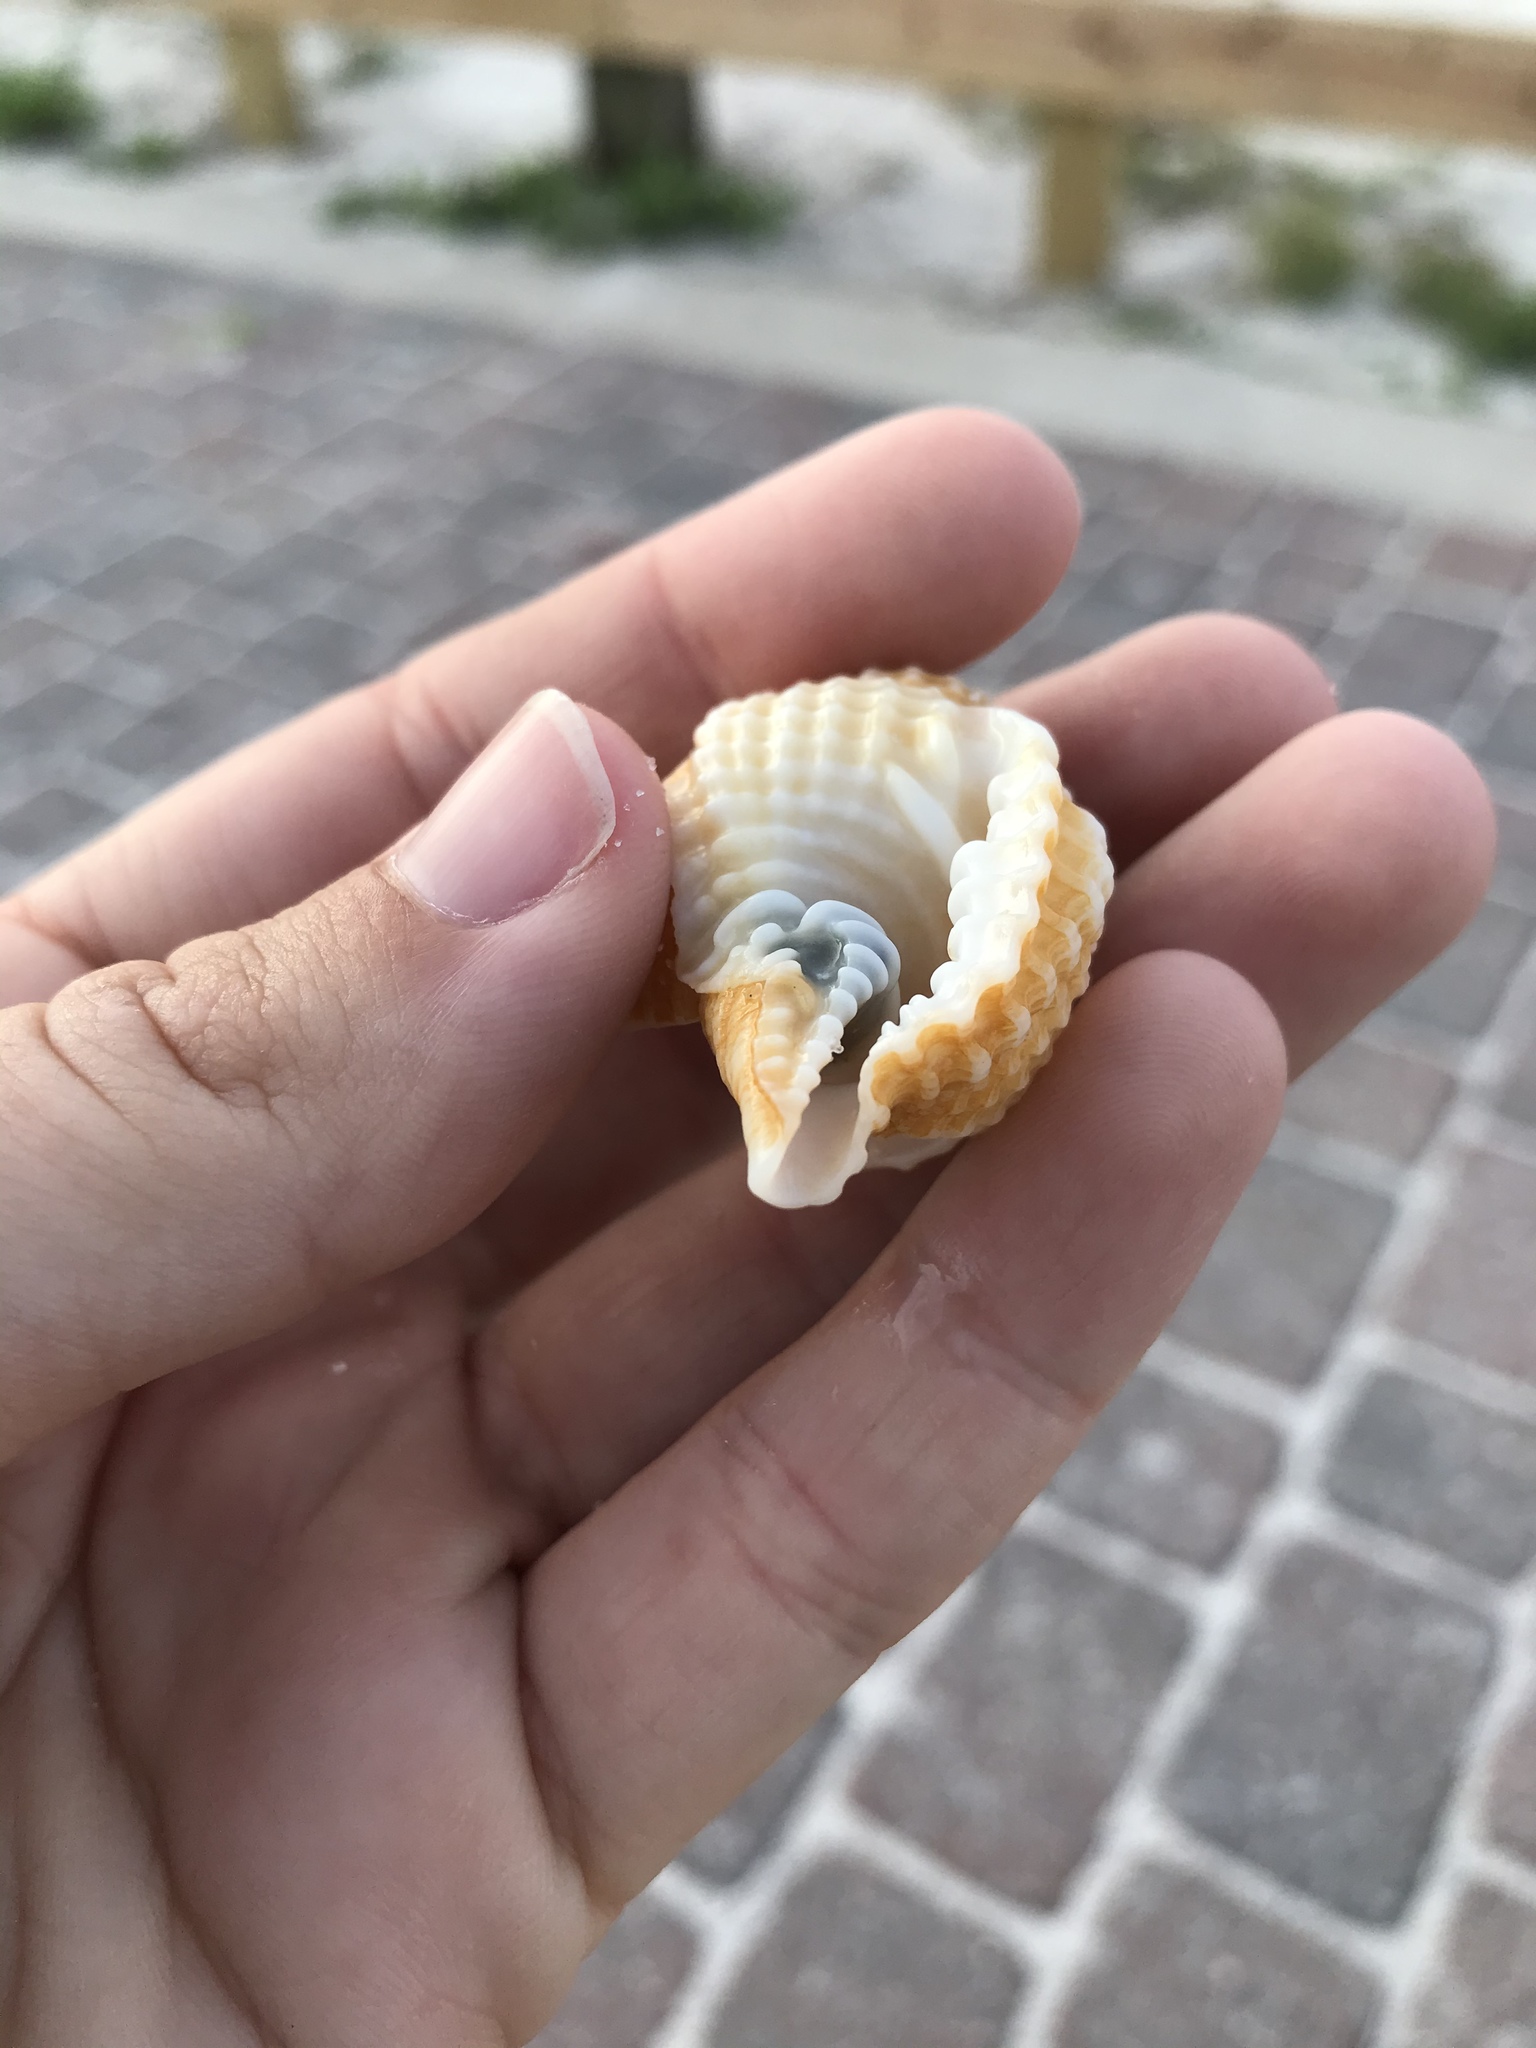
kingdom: Animalia
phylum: Mollusca
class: Gastropoda
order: Littorinimorpha
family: Personidae
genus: Distorsio
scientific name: Distorsio clathrata
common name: Atlantic distorsio
